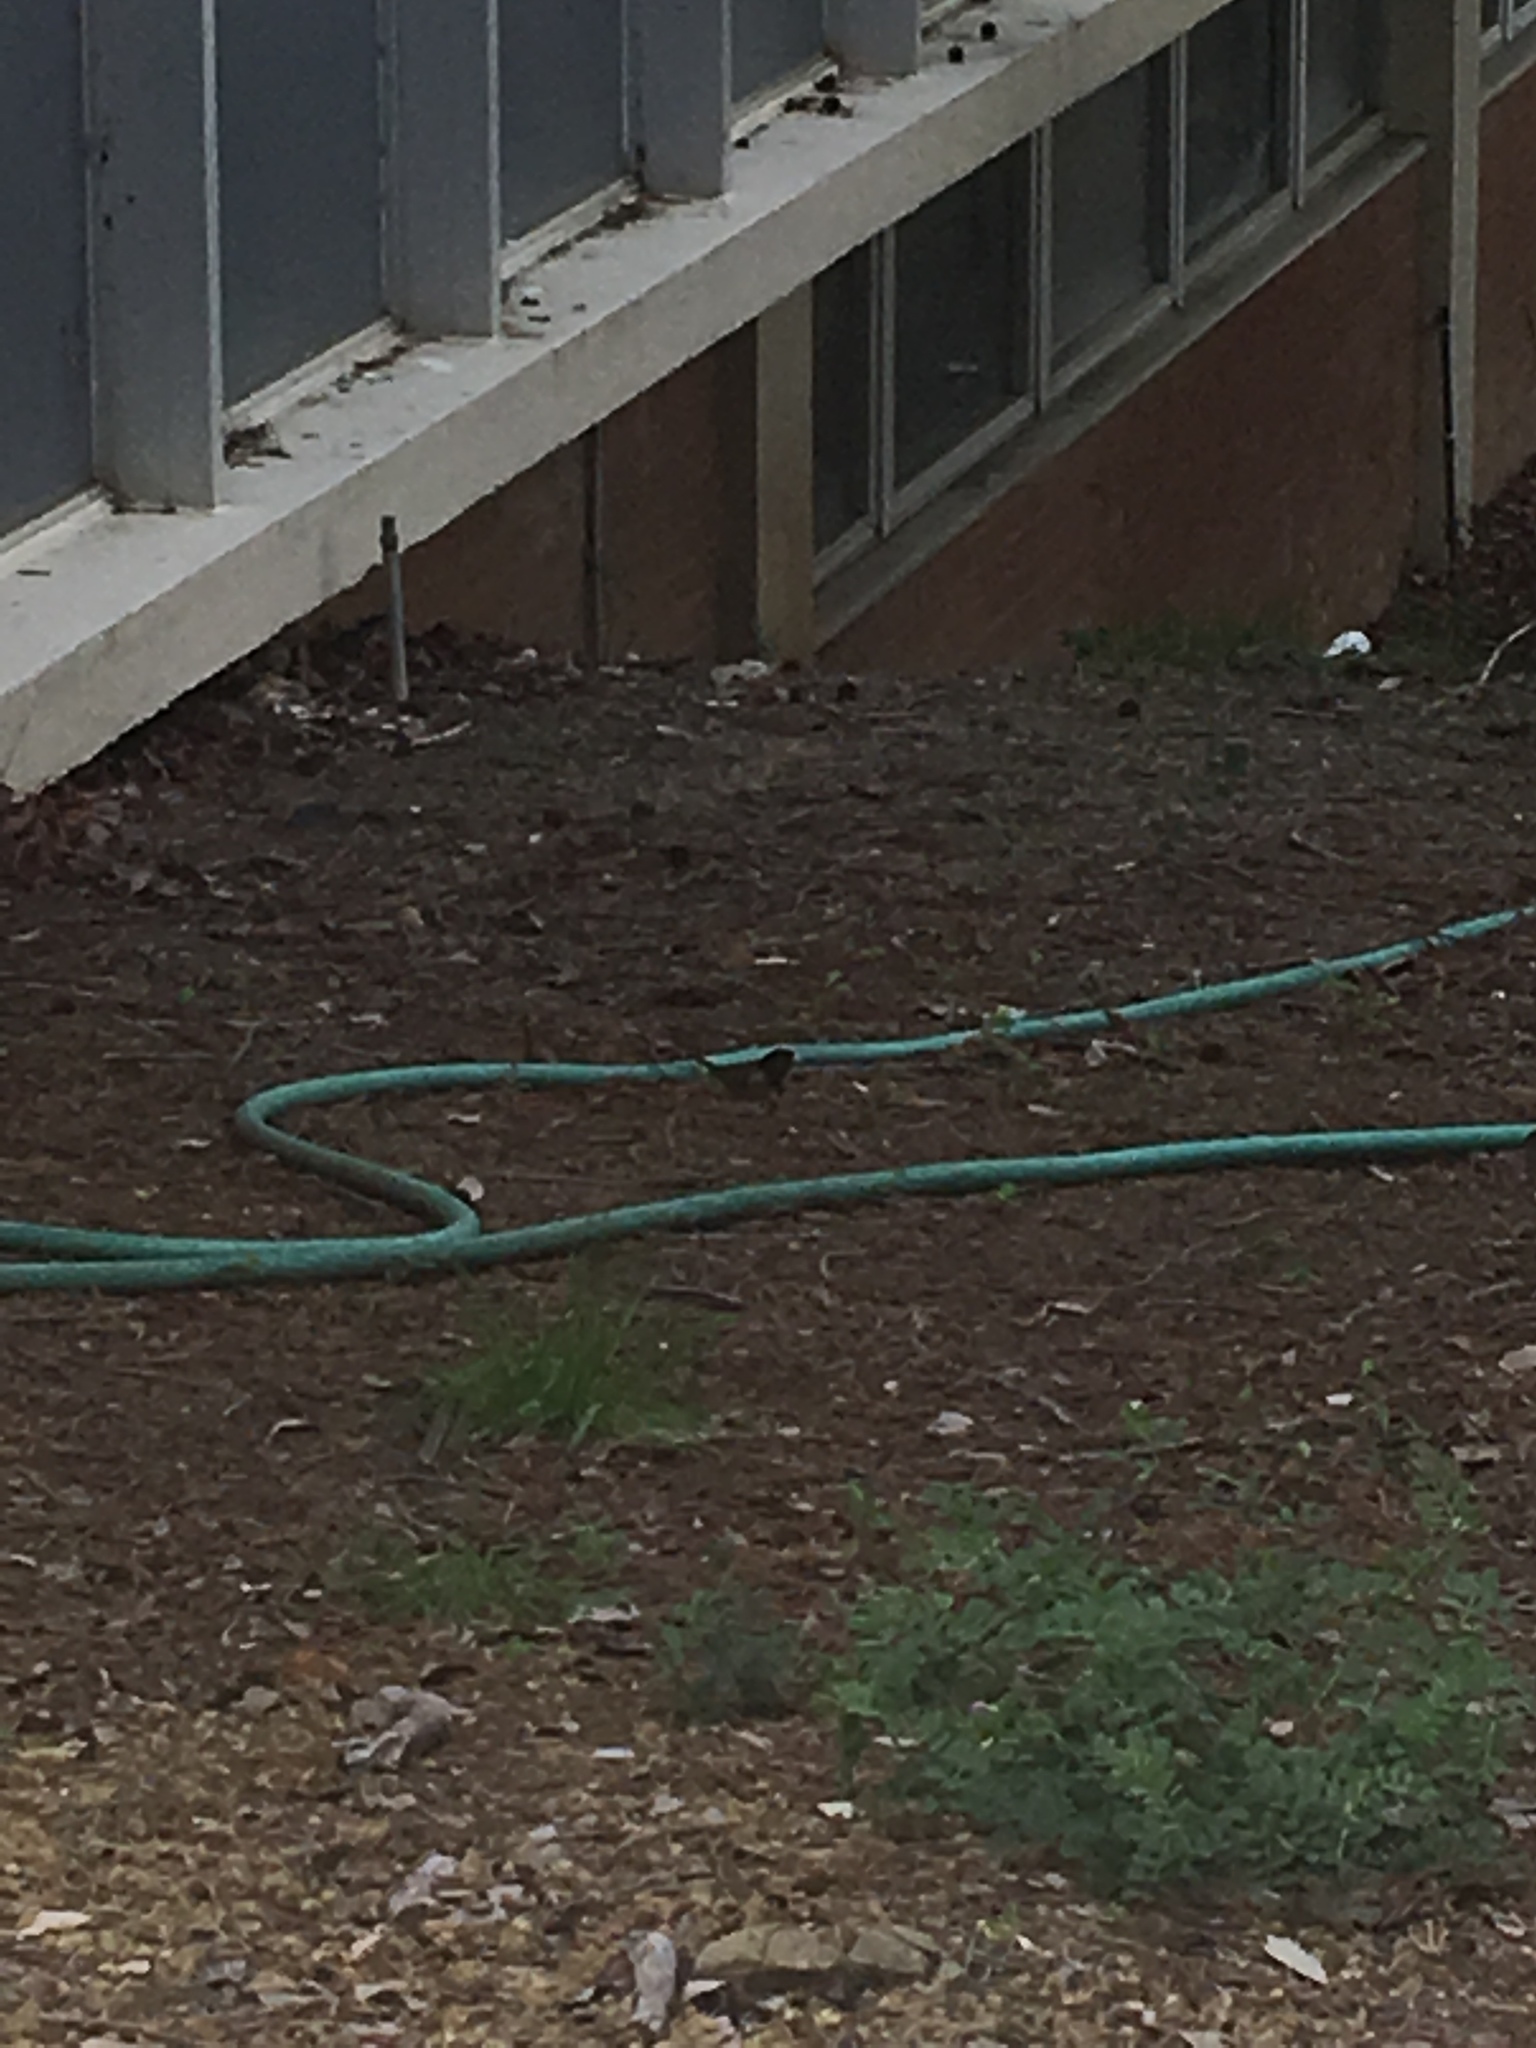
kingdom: Animalia
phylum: Chordata
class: Aves
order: Passeriformes
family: Passerellidae
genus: Junco
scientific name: Junco hyemalis
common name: Dark-eyed junco
